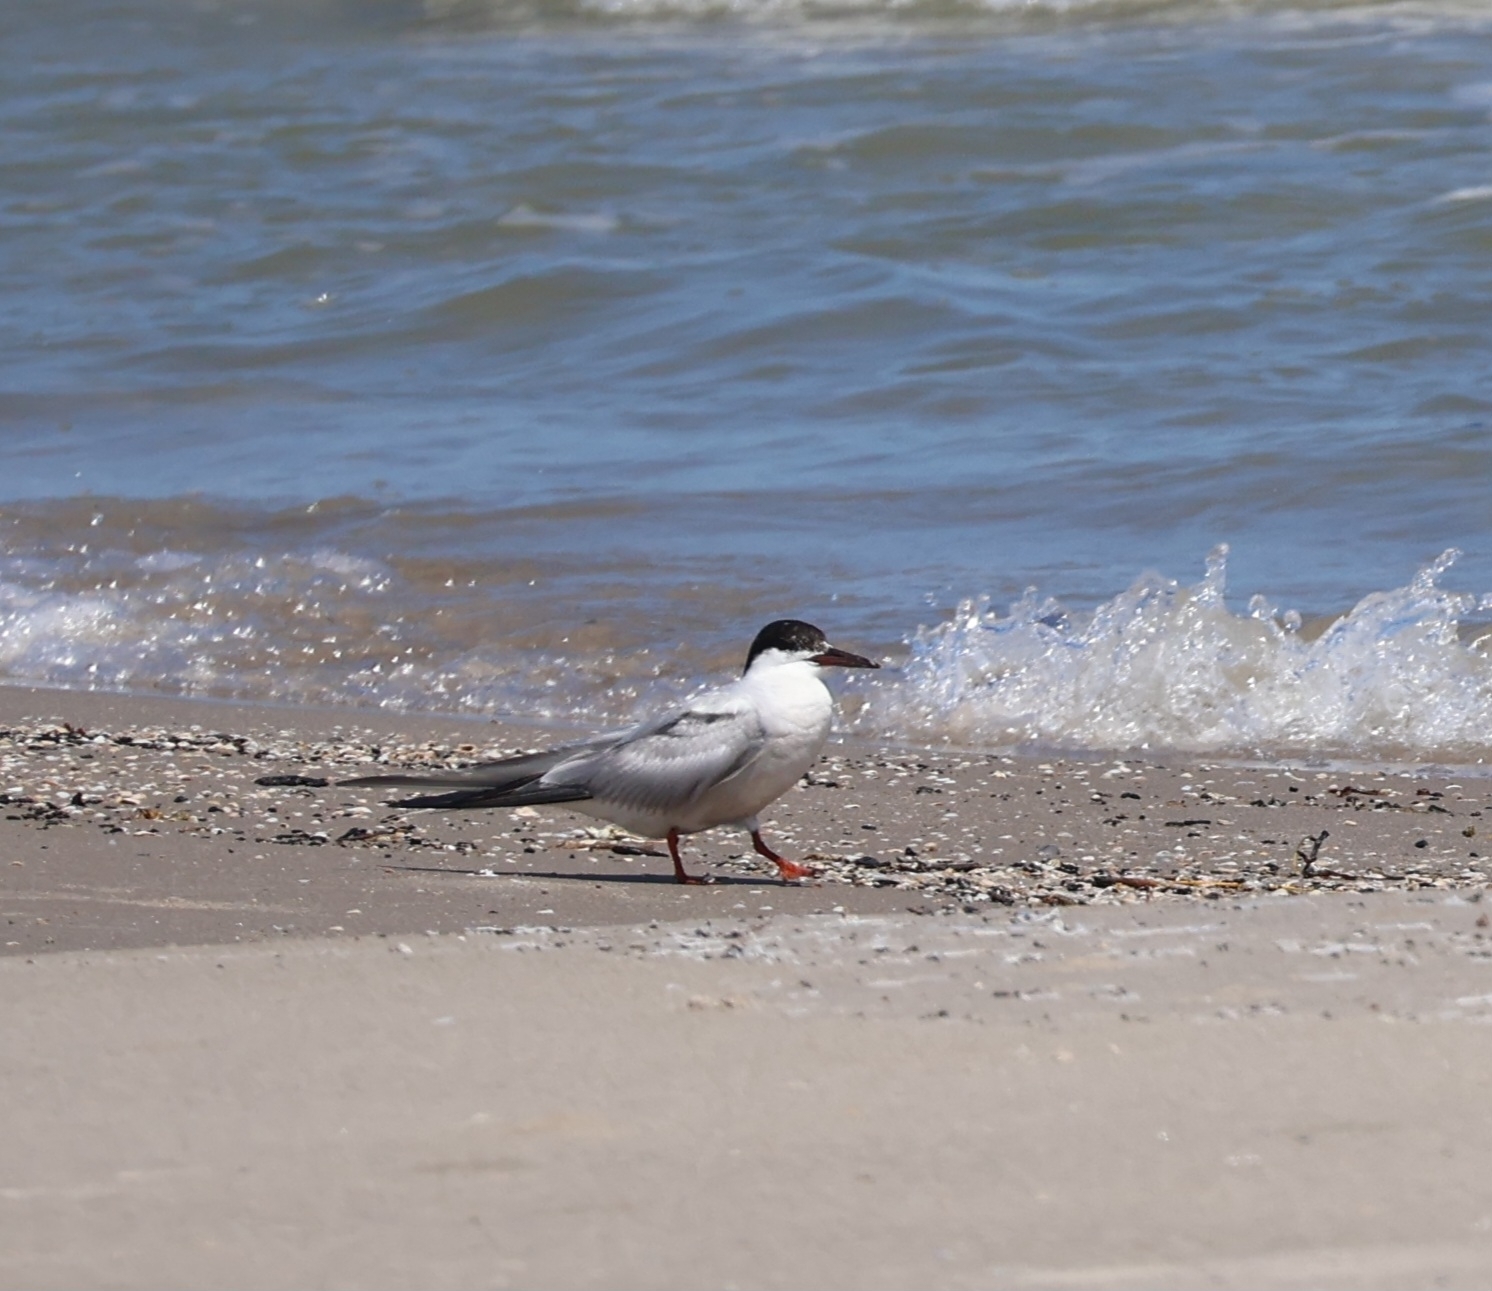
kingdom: Animalia
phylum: Chordata
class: Aves
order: Charadriiformes
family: Laridae
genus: Sterna
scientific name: Sterna hirundo
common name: Common tern
